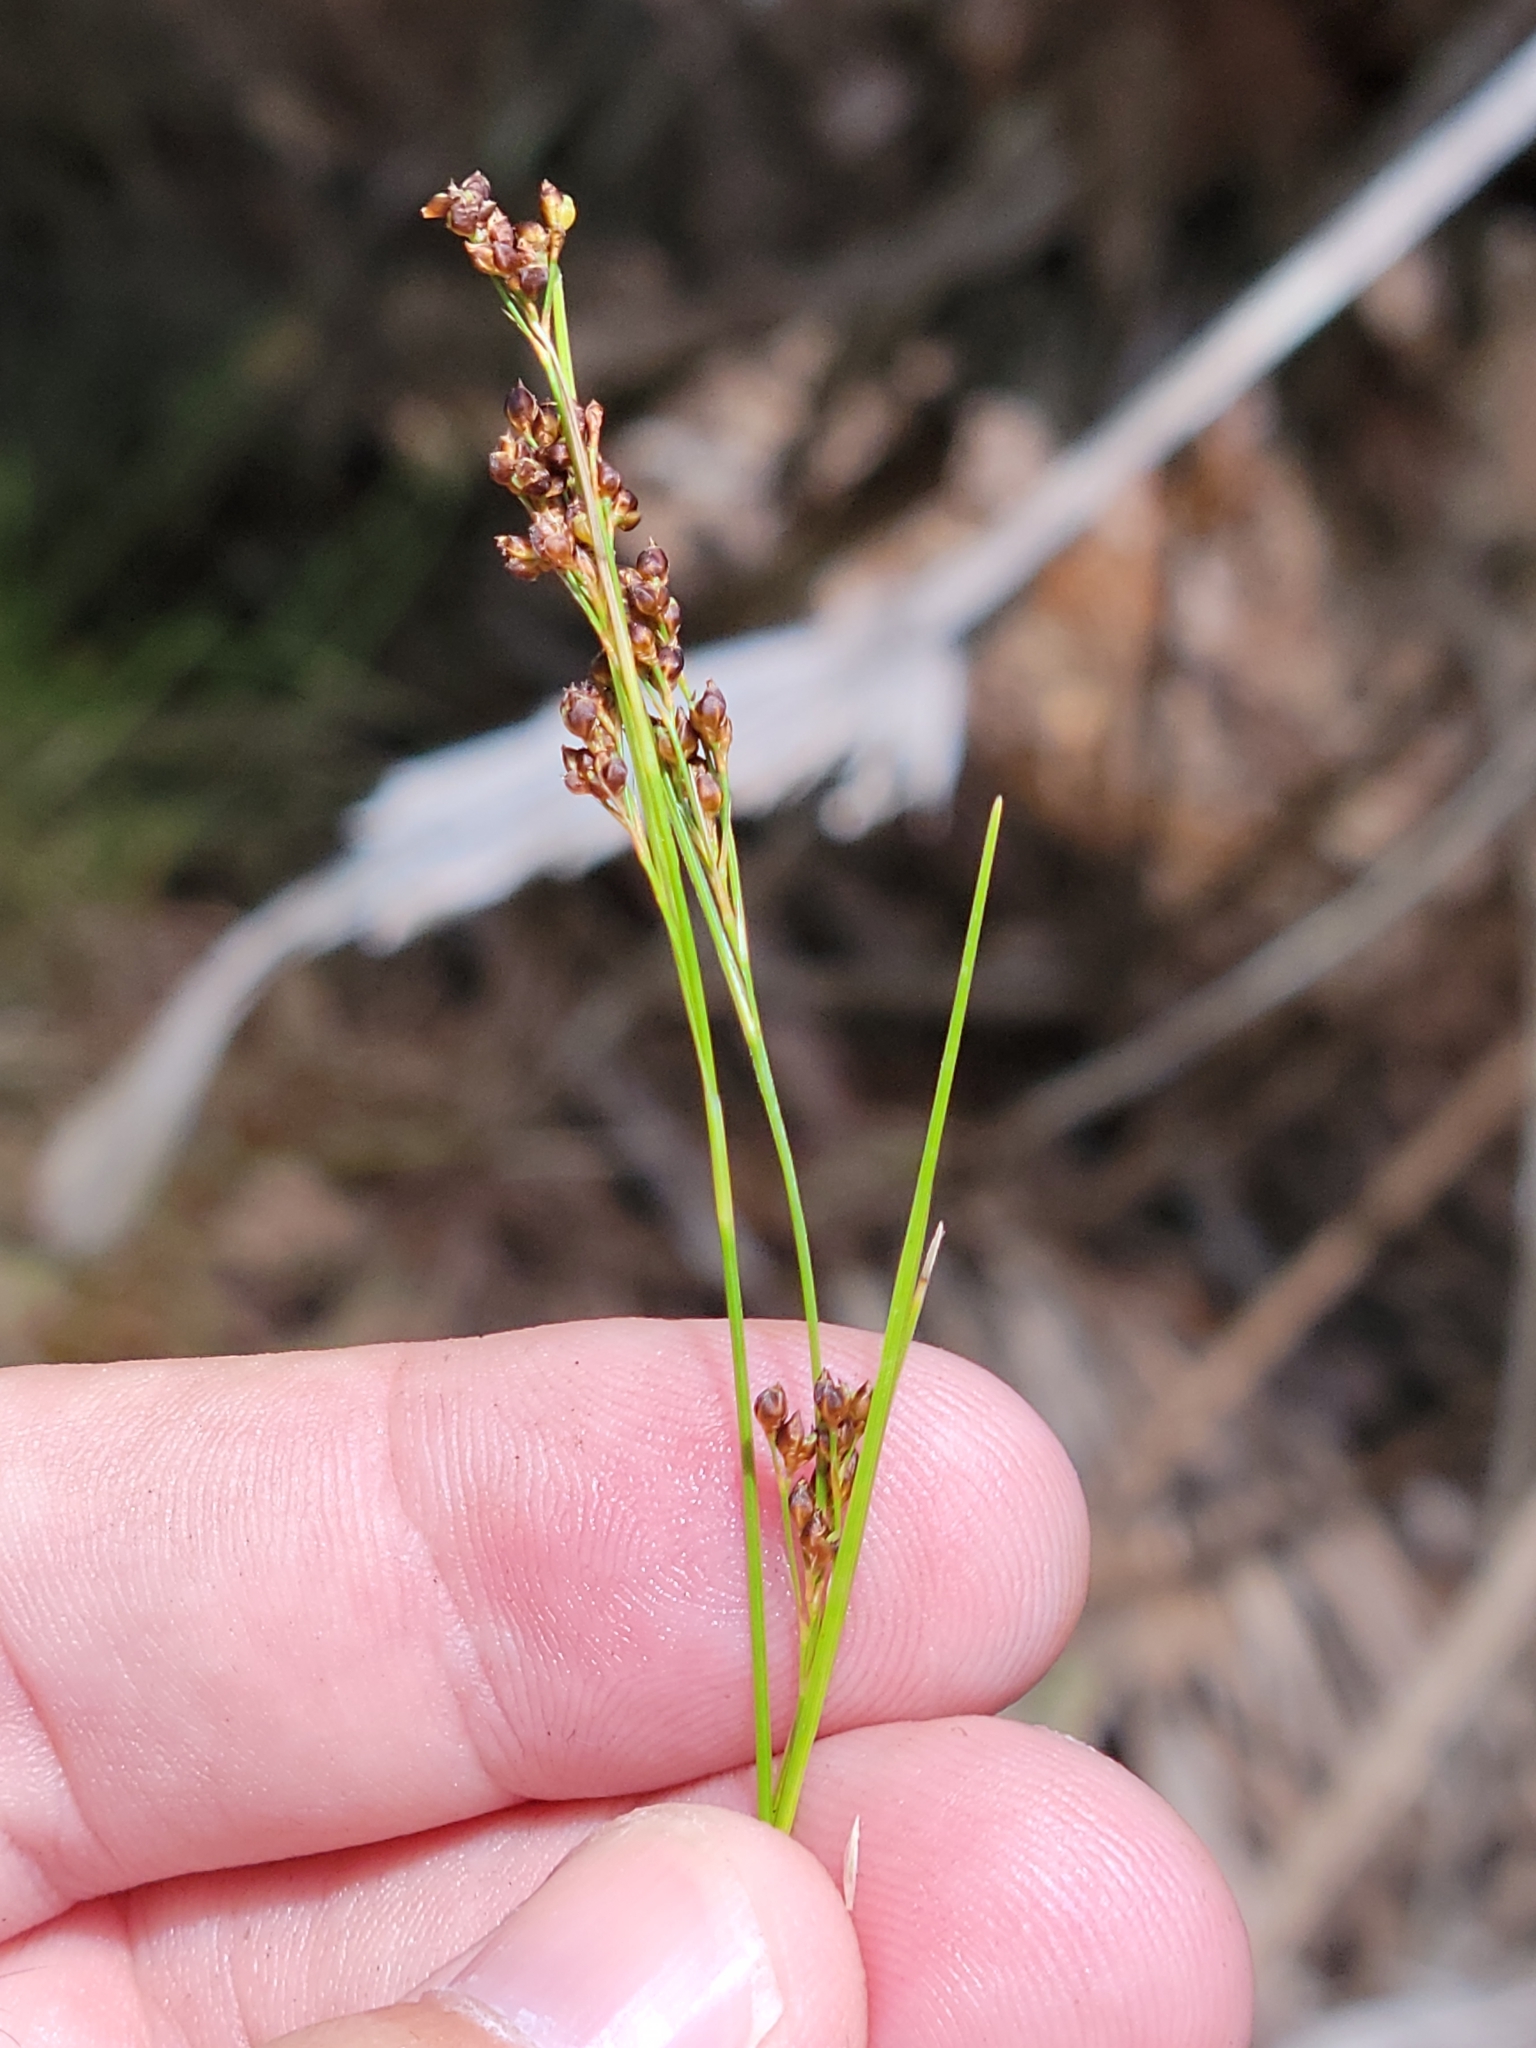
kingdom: Plantae
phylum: Tracheophyta
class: Liliopsida
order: Poales
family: Cyperaceae
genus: Rhynchospora
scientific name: Rhynchospora microcarpa
